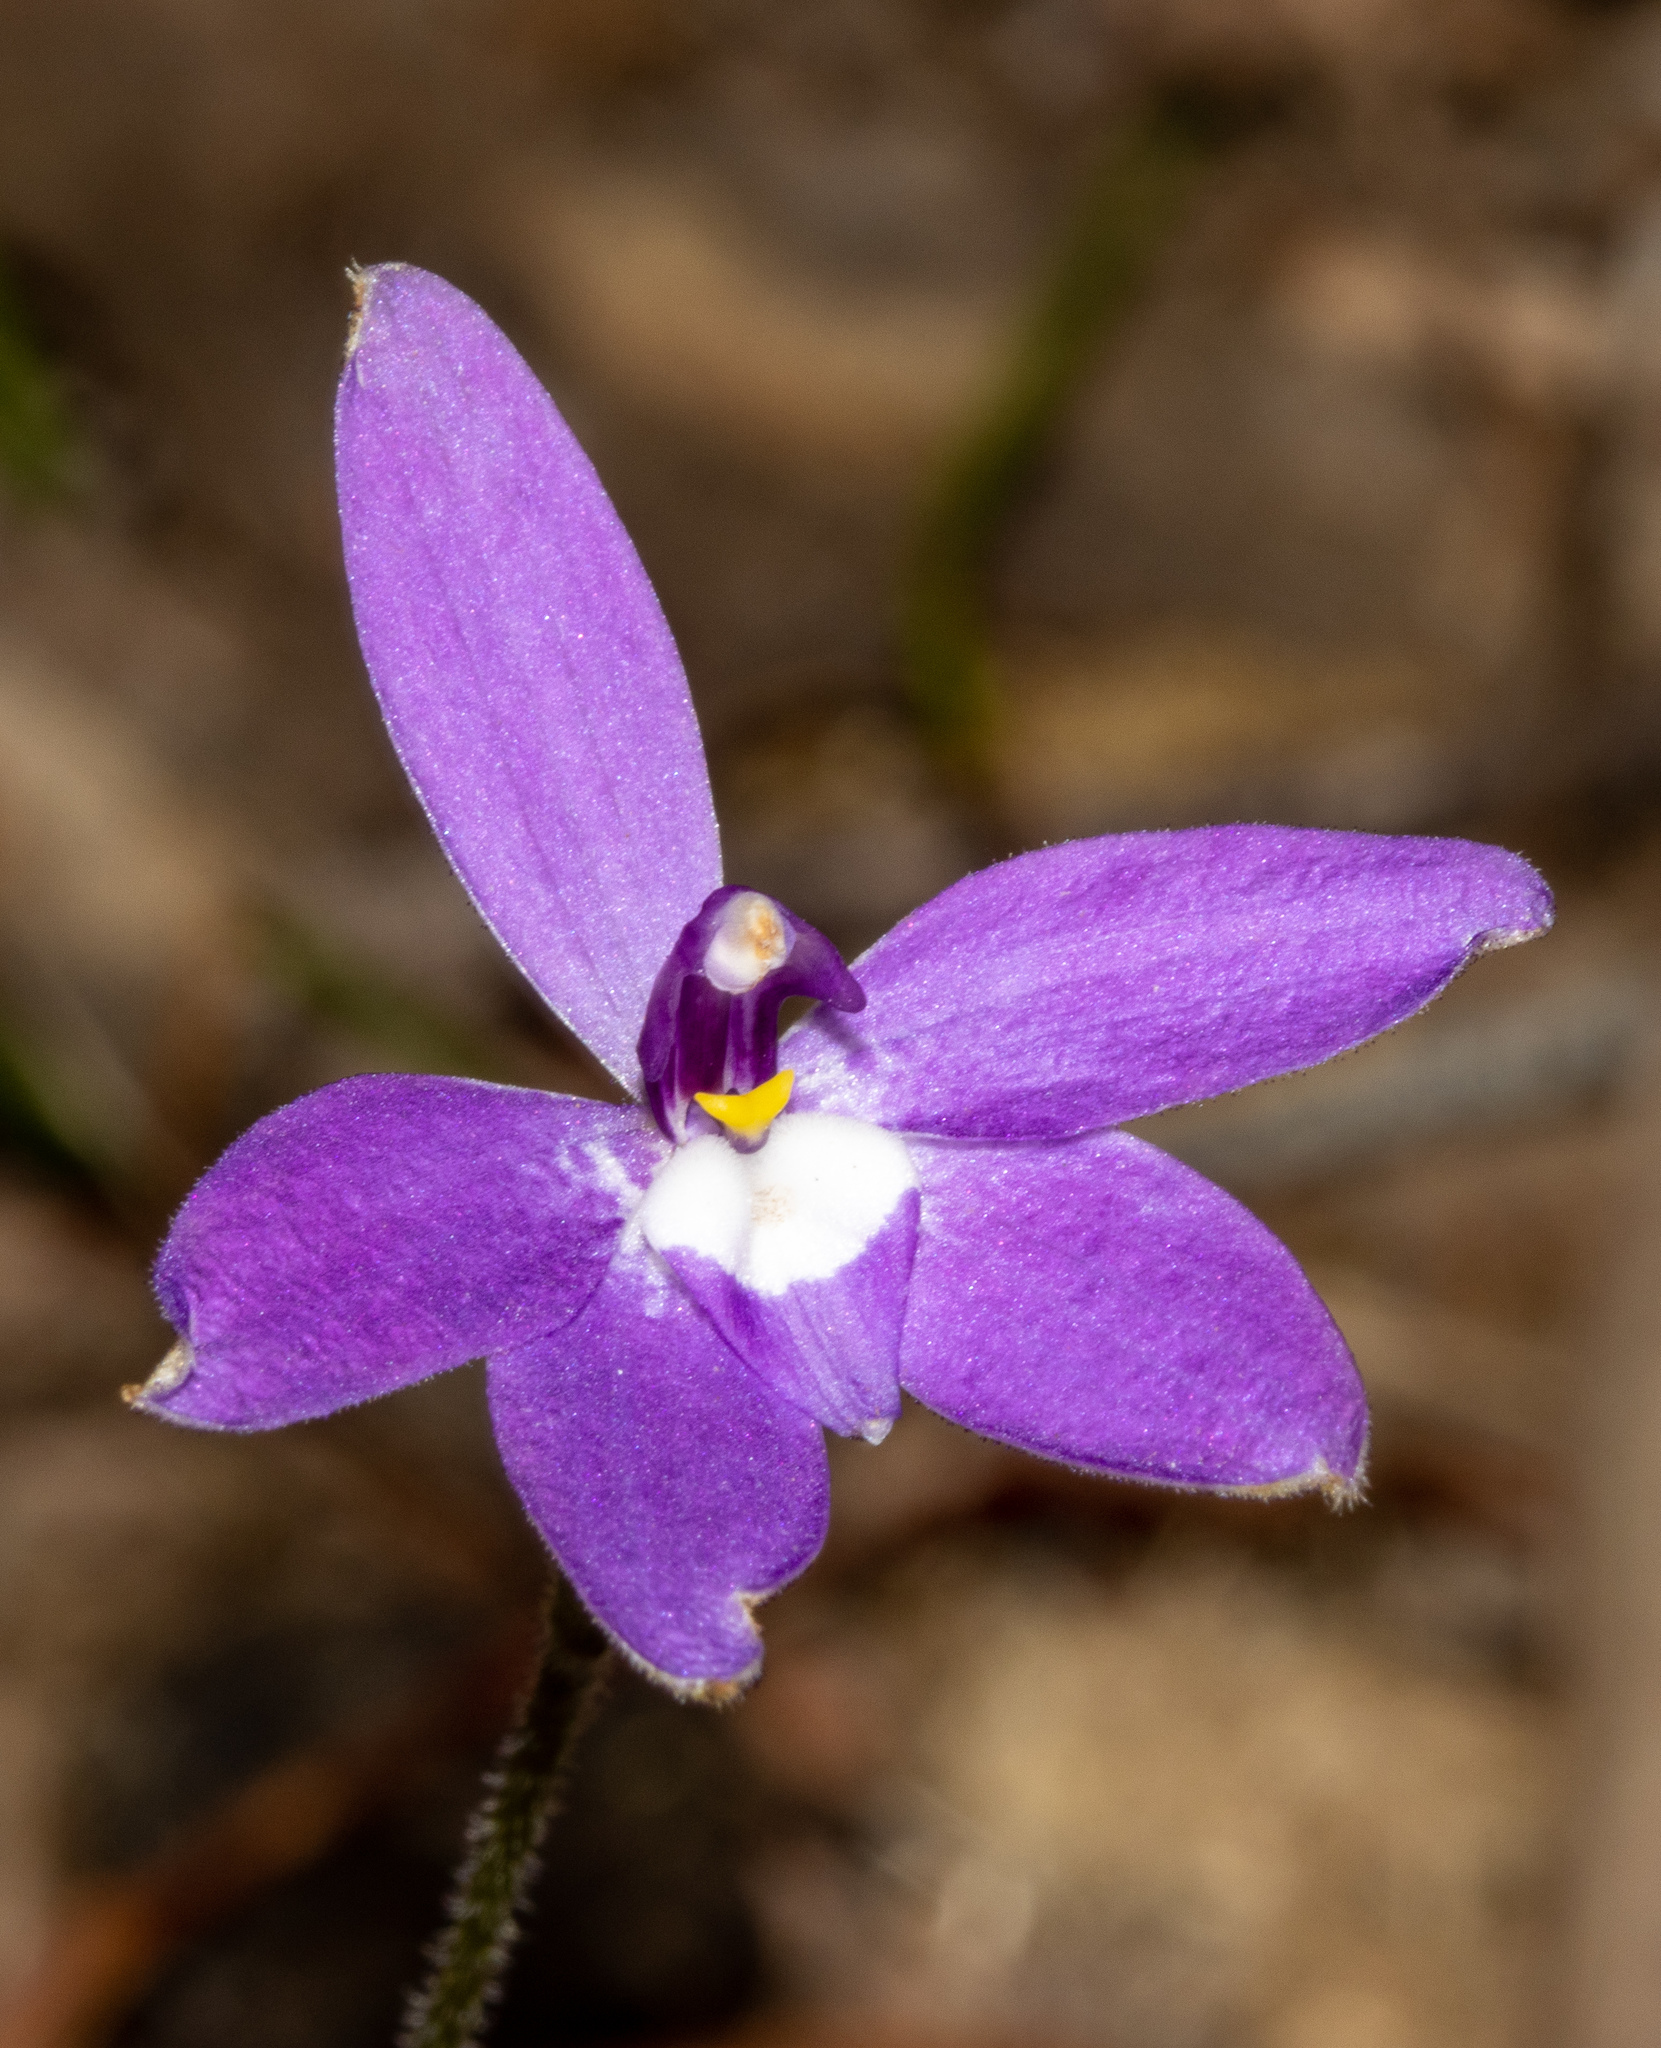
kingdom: Plantae
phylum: Tracheophyta
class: Liliopsida
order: Asparagales
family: Orchidaceae
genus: Caladenia
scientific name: Caladenia major
